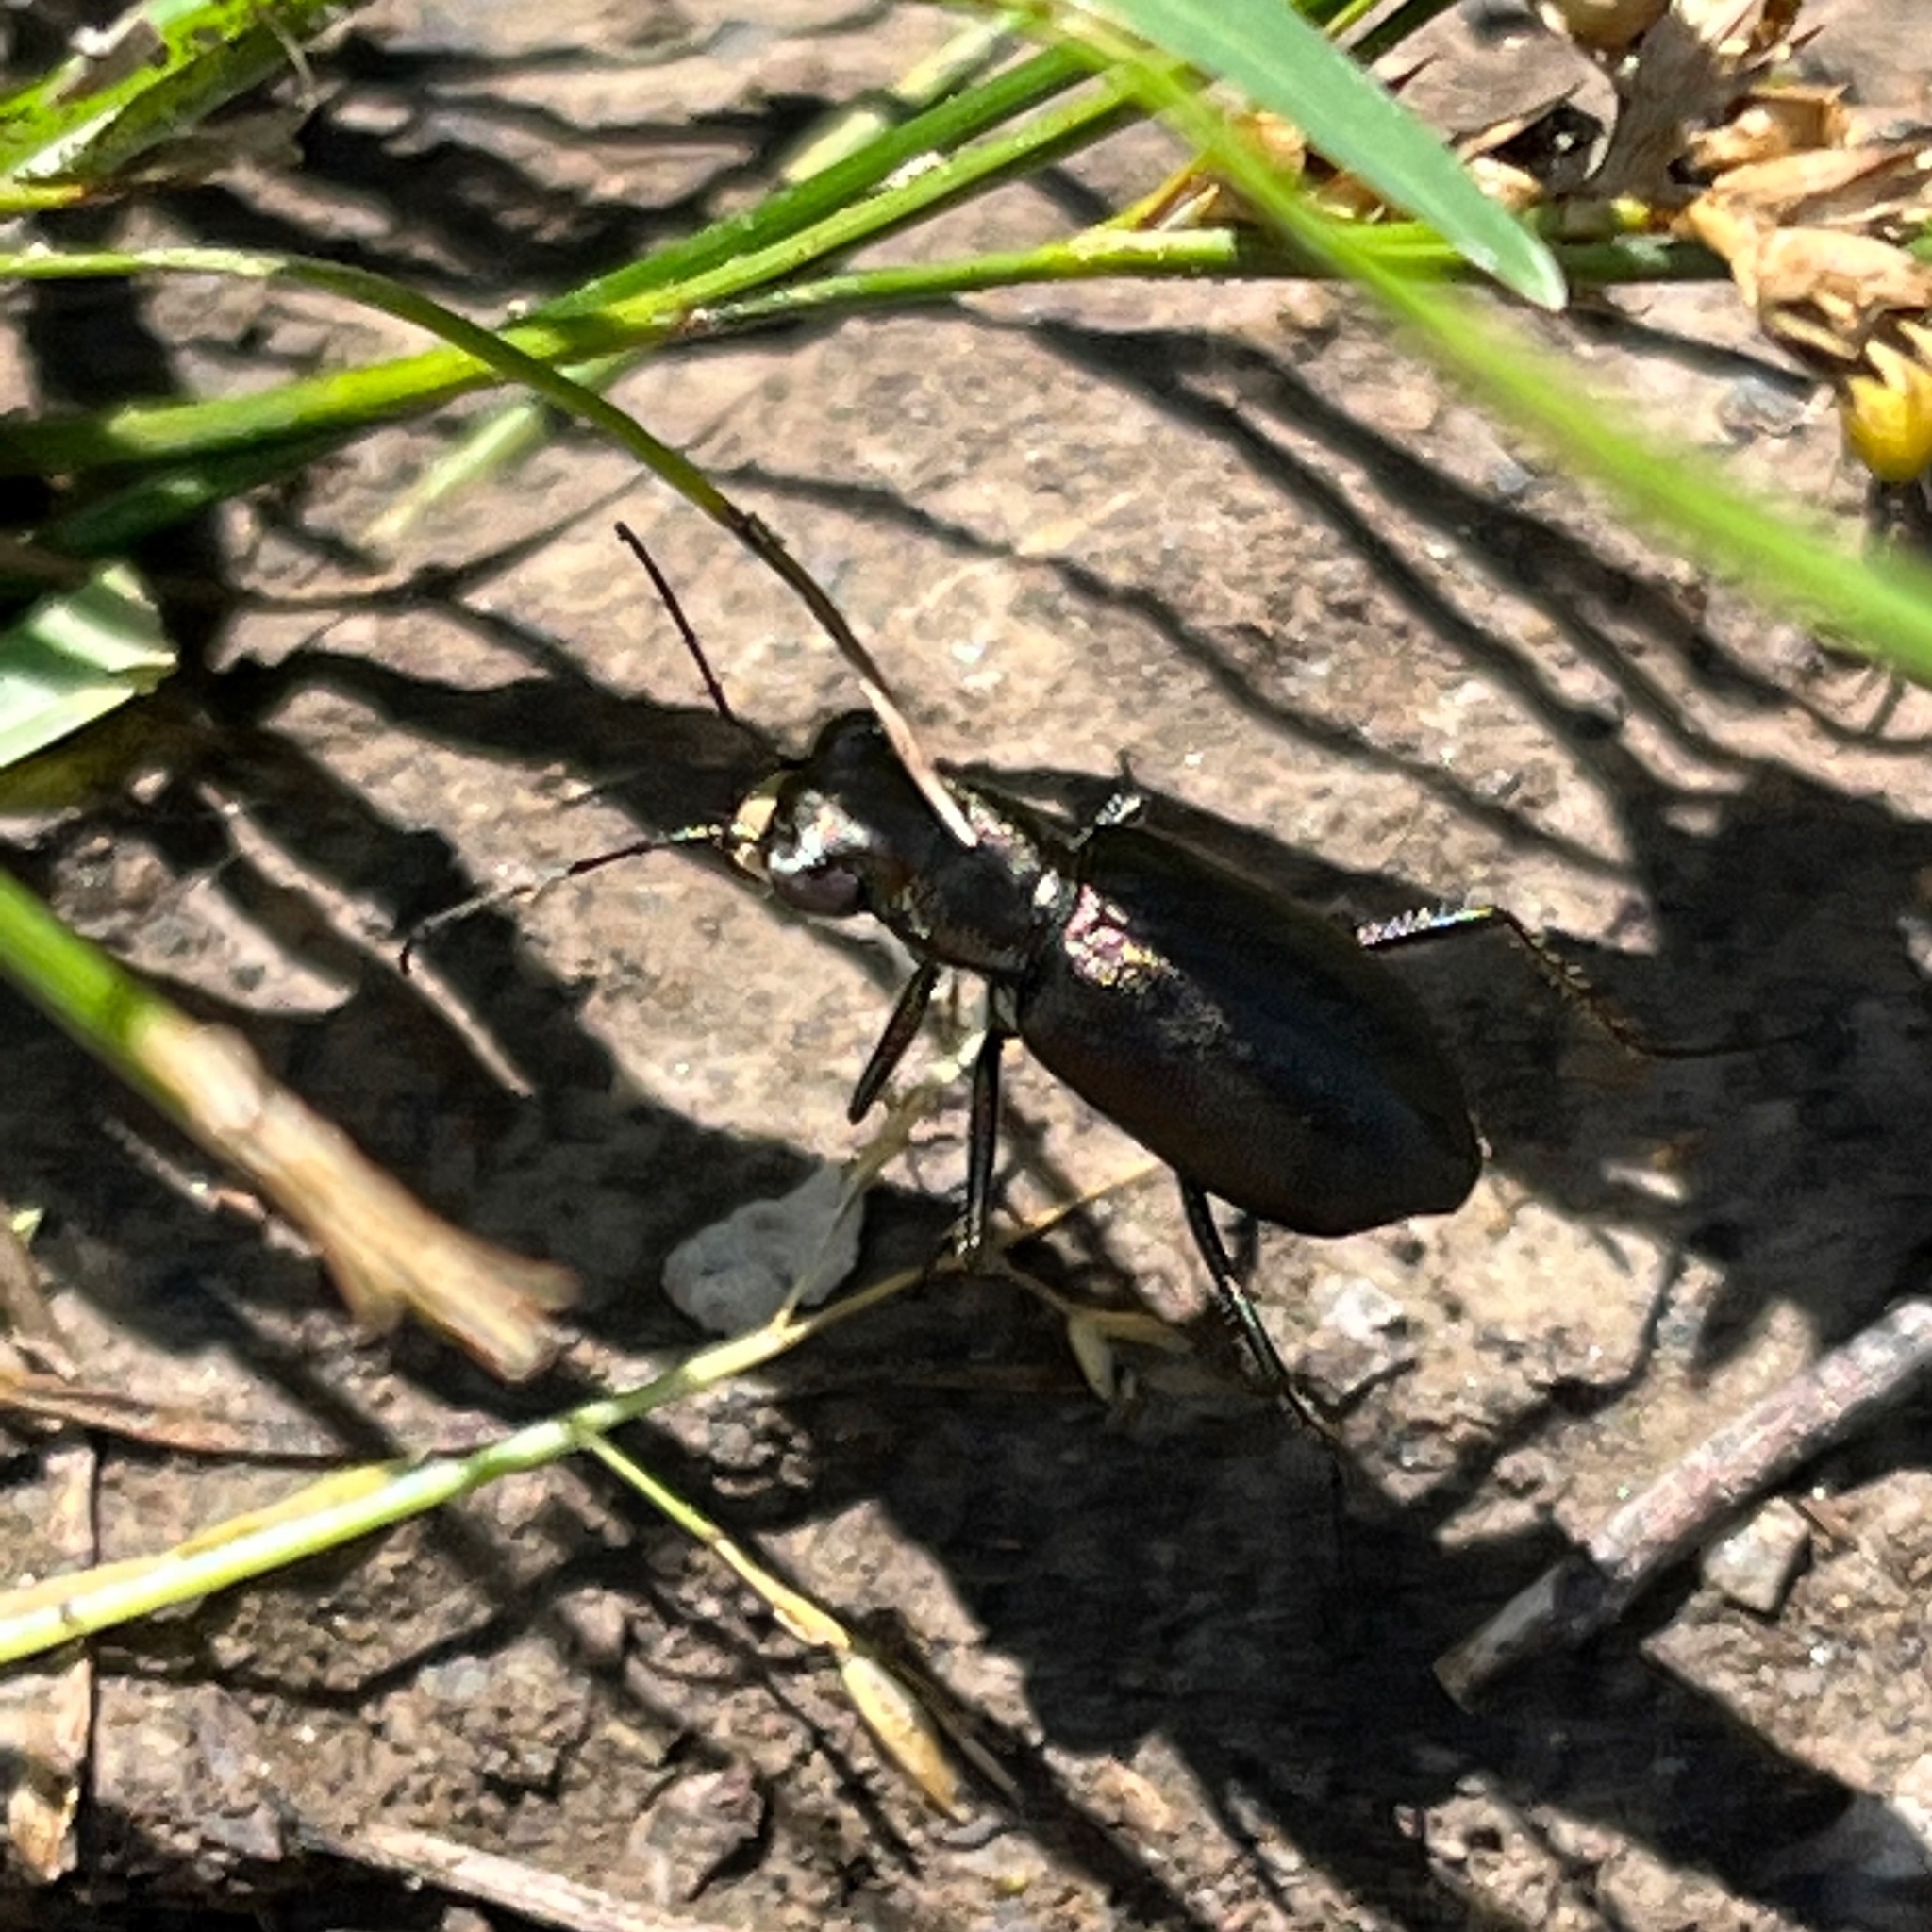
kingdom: Animalia
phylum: Arthropoda
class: Insecta
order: Coleoptera
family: Carabidae
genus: Cicindela
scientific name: Cicindela punctulata
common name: Punctured tiger beetle
